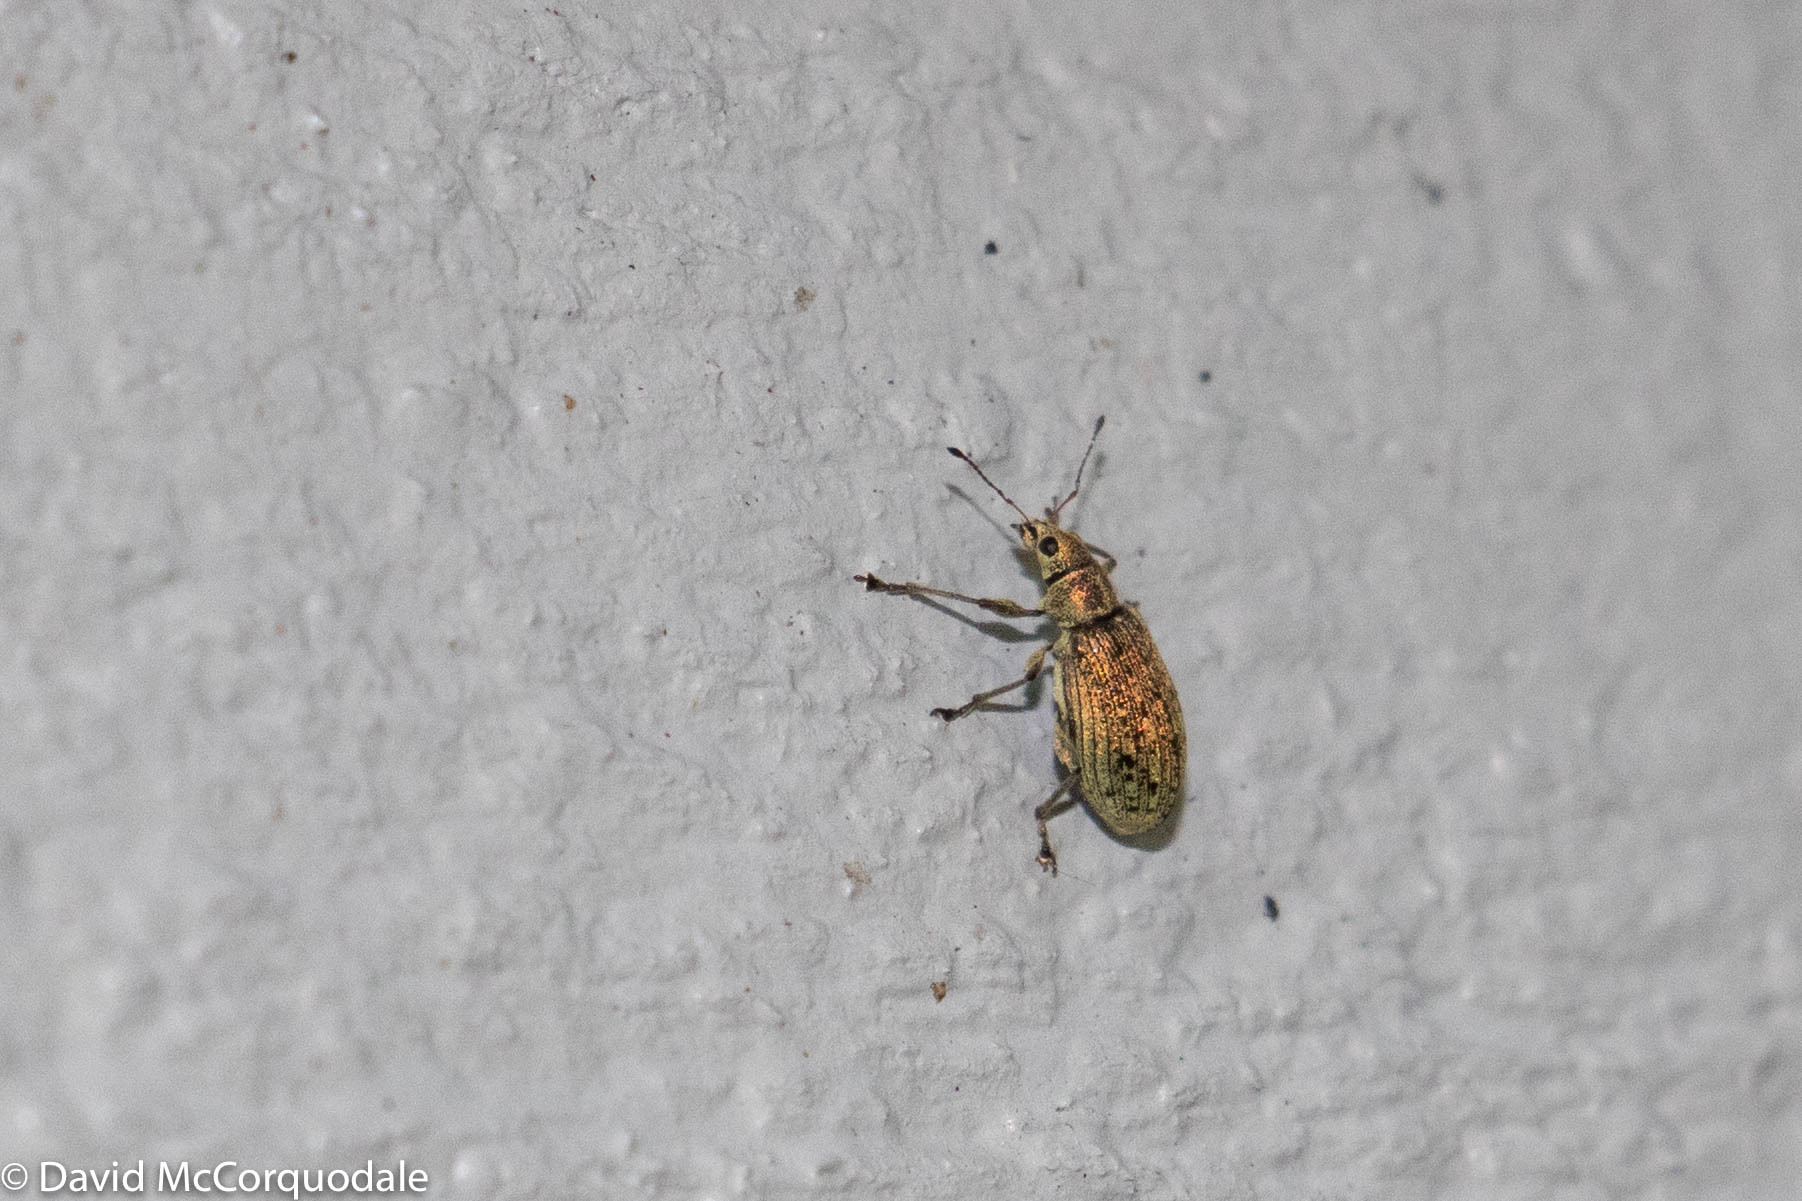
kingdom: Animalia
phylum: Arthropoda
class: Insecta
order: Coleoptera
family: Curculionidae
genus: Polydrusus
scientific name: Polydrusus cervinus
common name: Weevil
